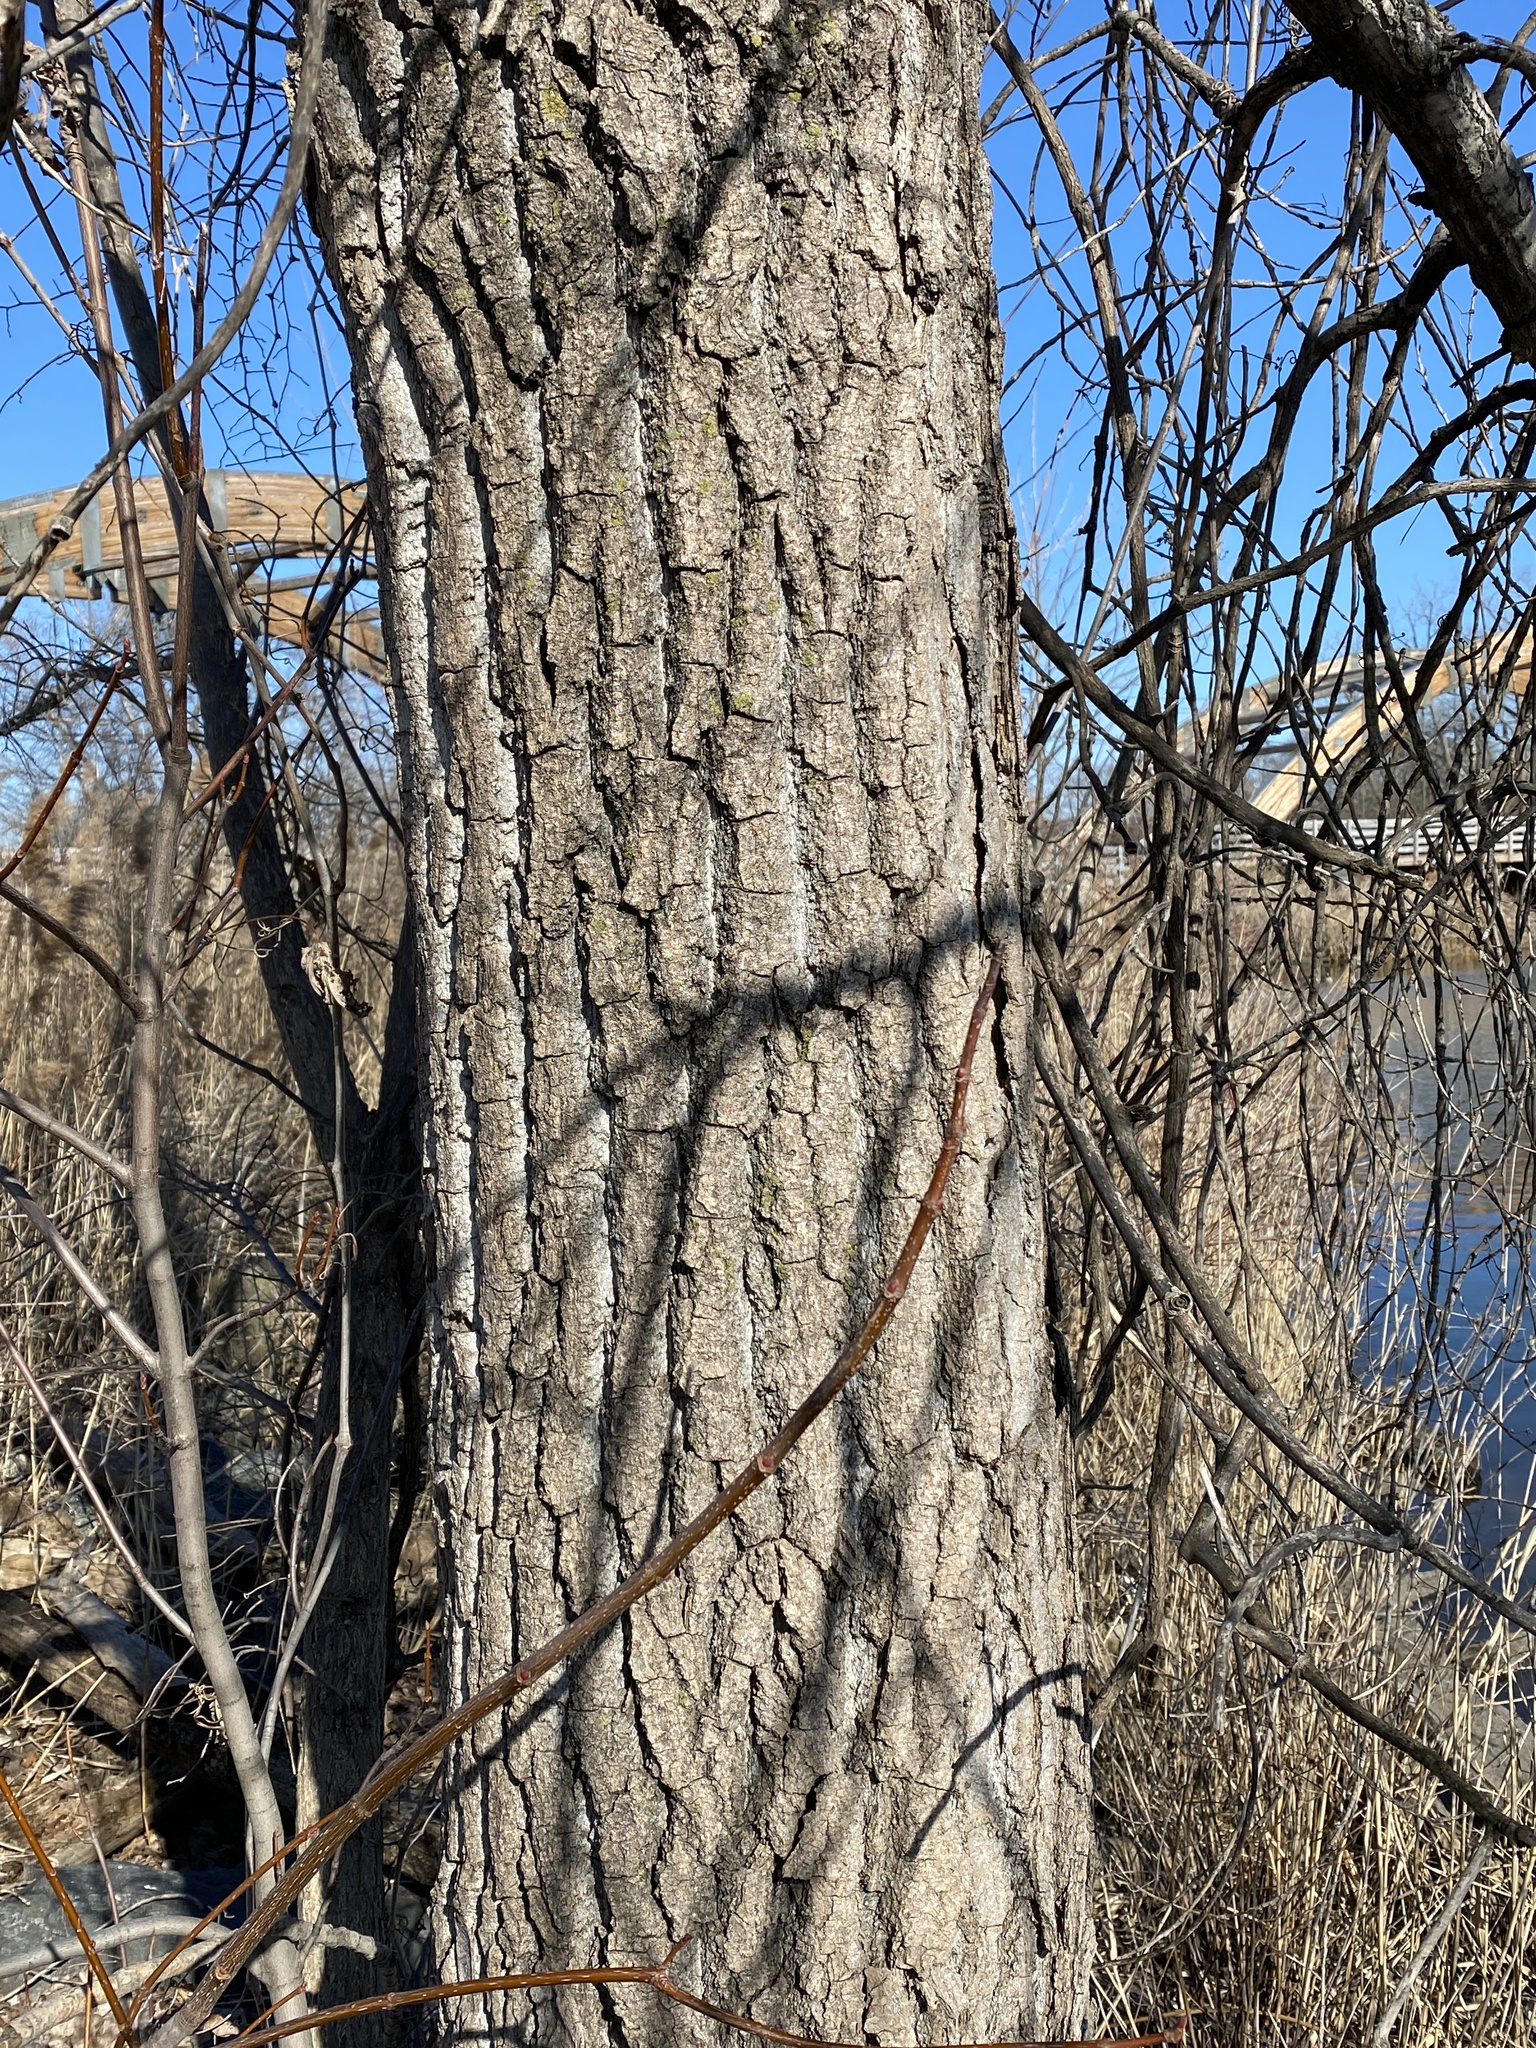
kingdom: Plantae
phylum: Tracheophyta
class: Magnoliopsida
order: Malpighiales
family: Salicaceae
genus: Populus
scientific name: Populus deltoides
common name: Eastern cottonwood
